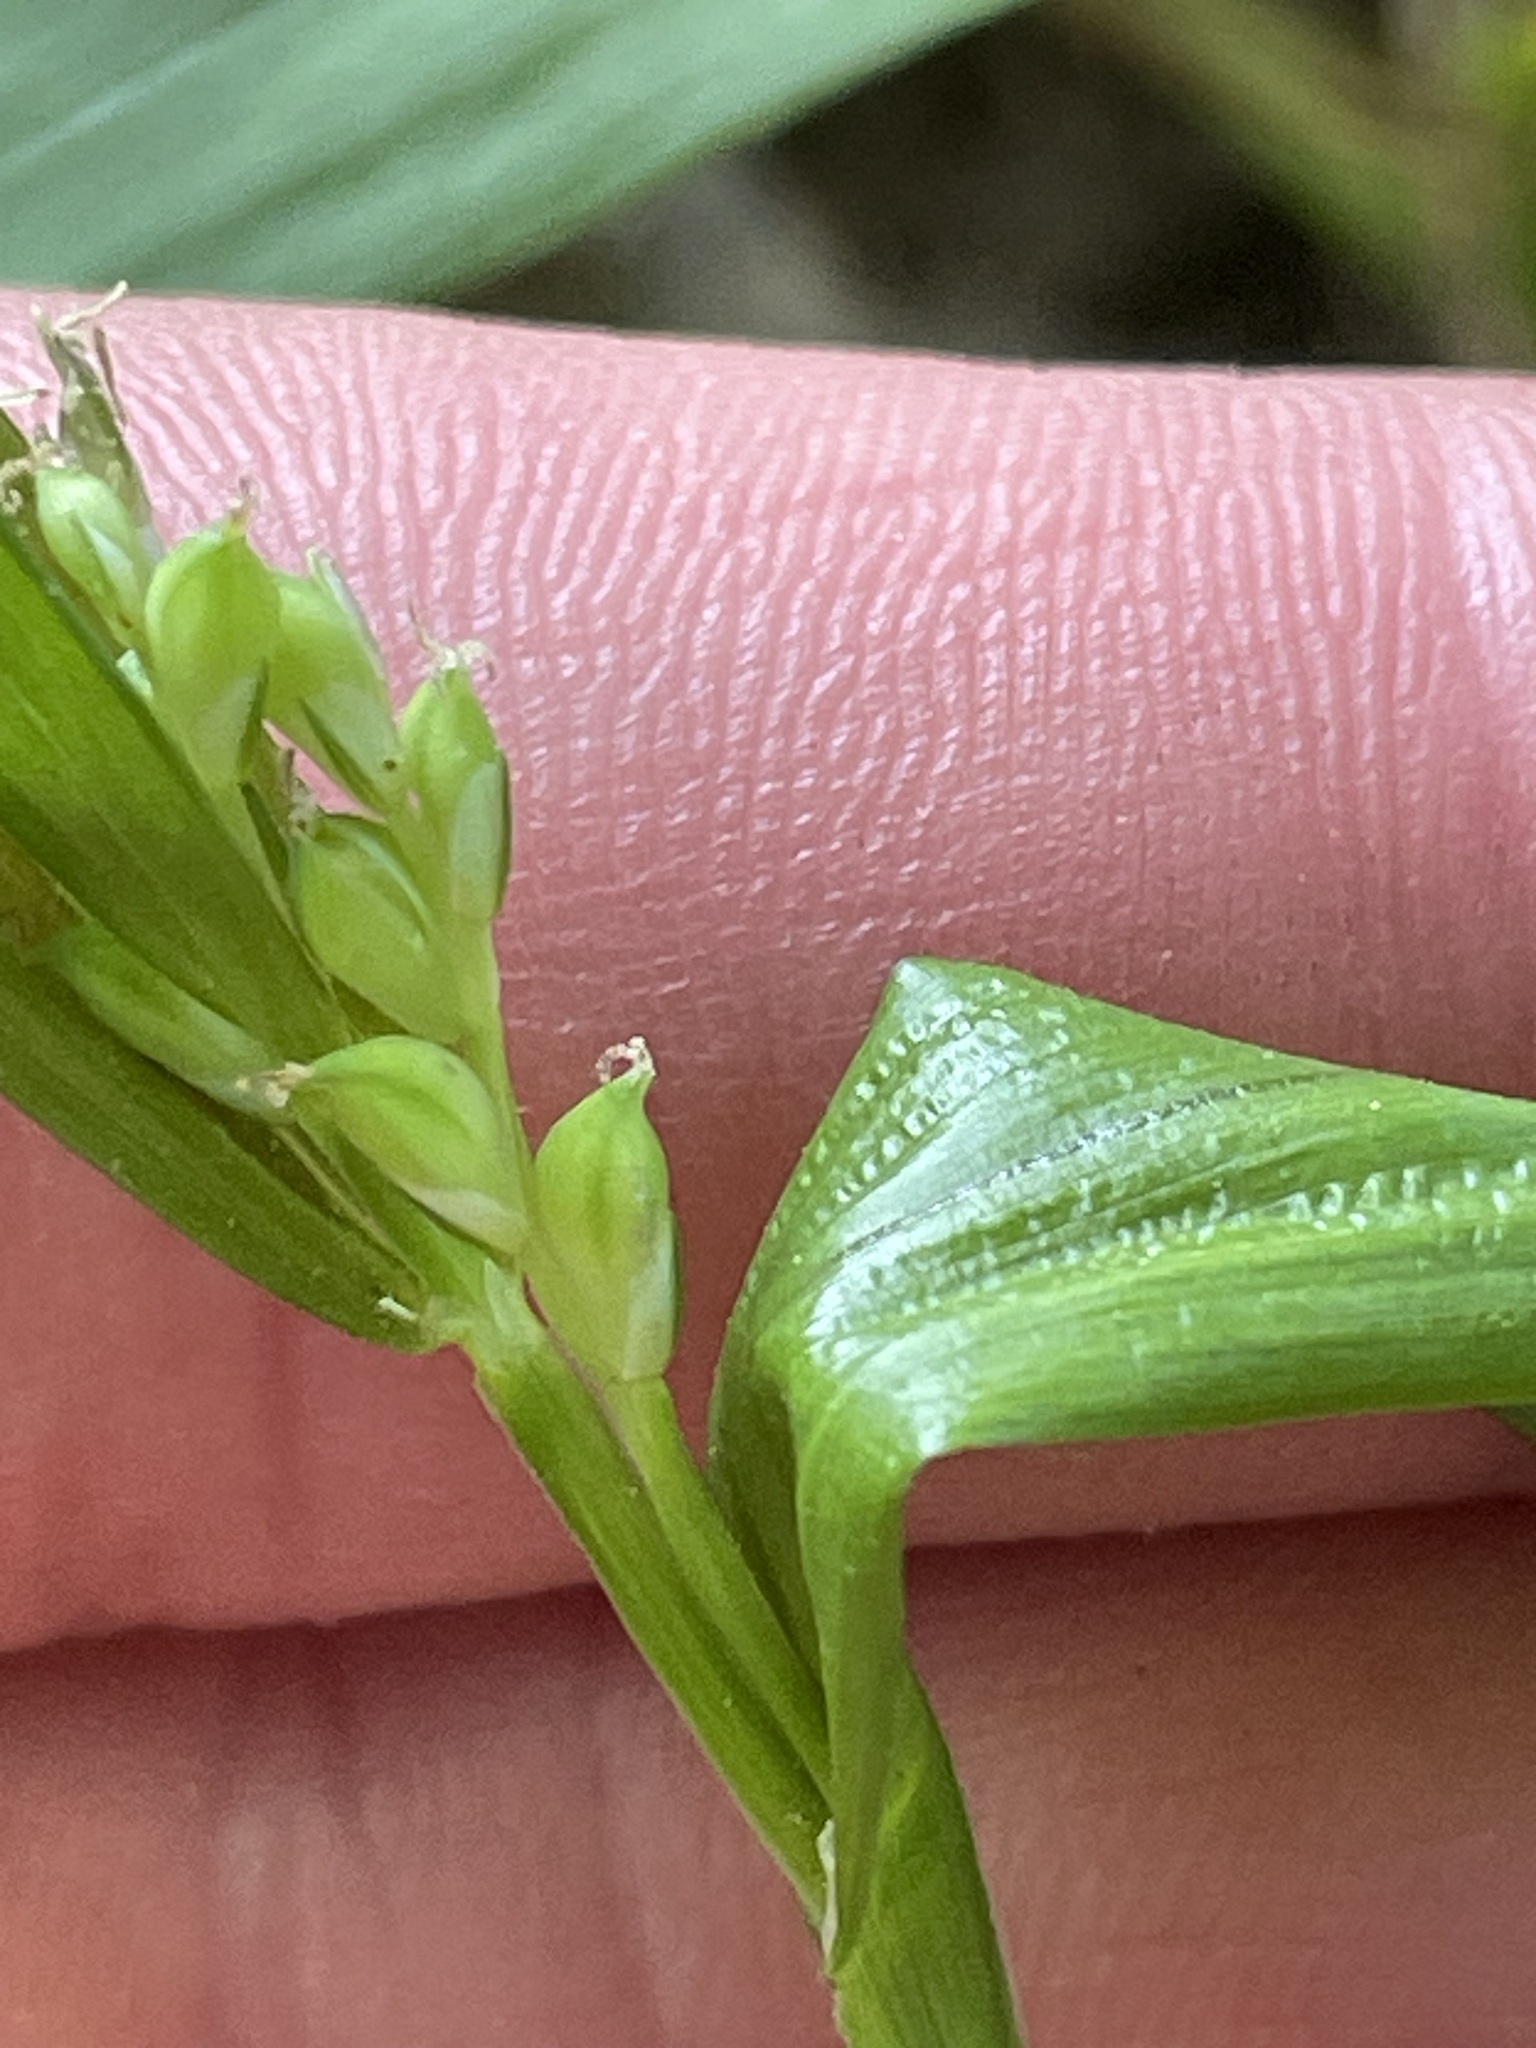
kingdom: Plantae
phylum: Tracheophyta
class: Liliopsida
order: Poales
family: Cyperaceae
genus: Carex
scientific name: Carex albursina
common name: Blunt-scale wood sedge
